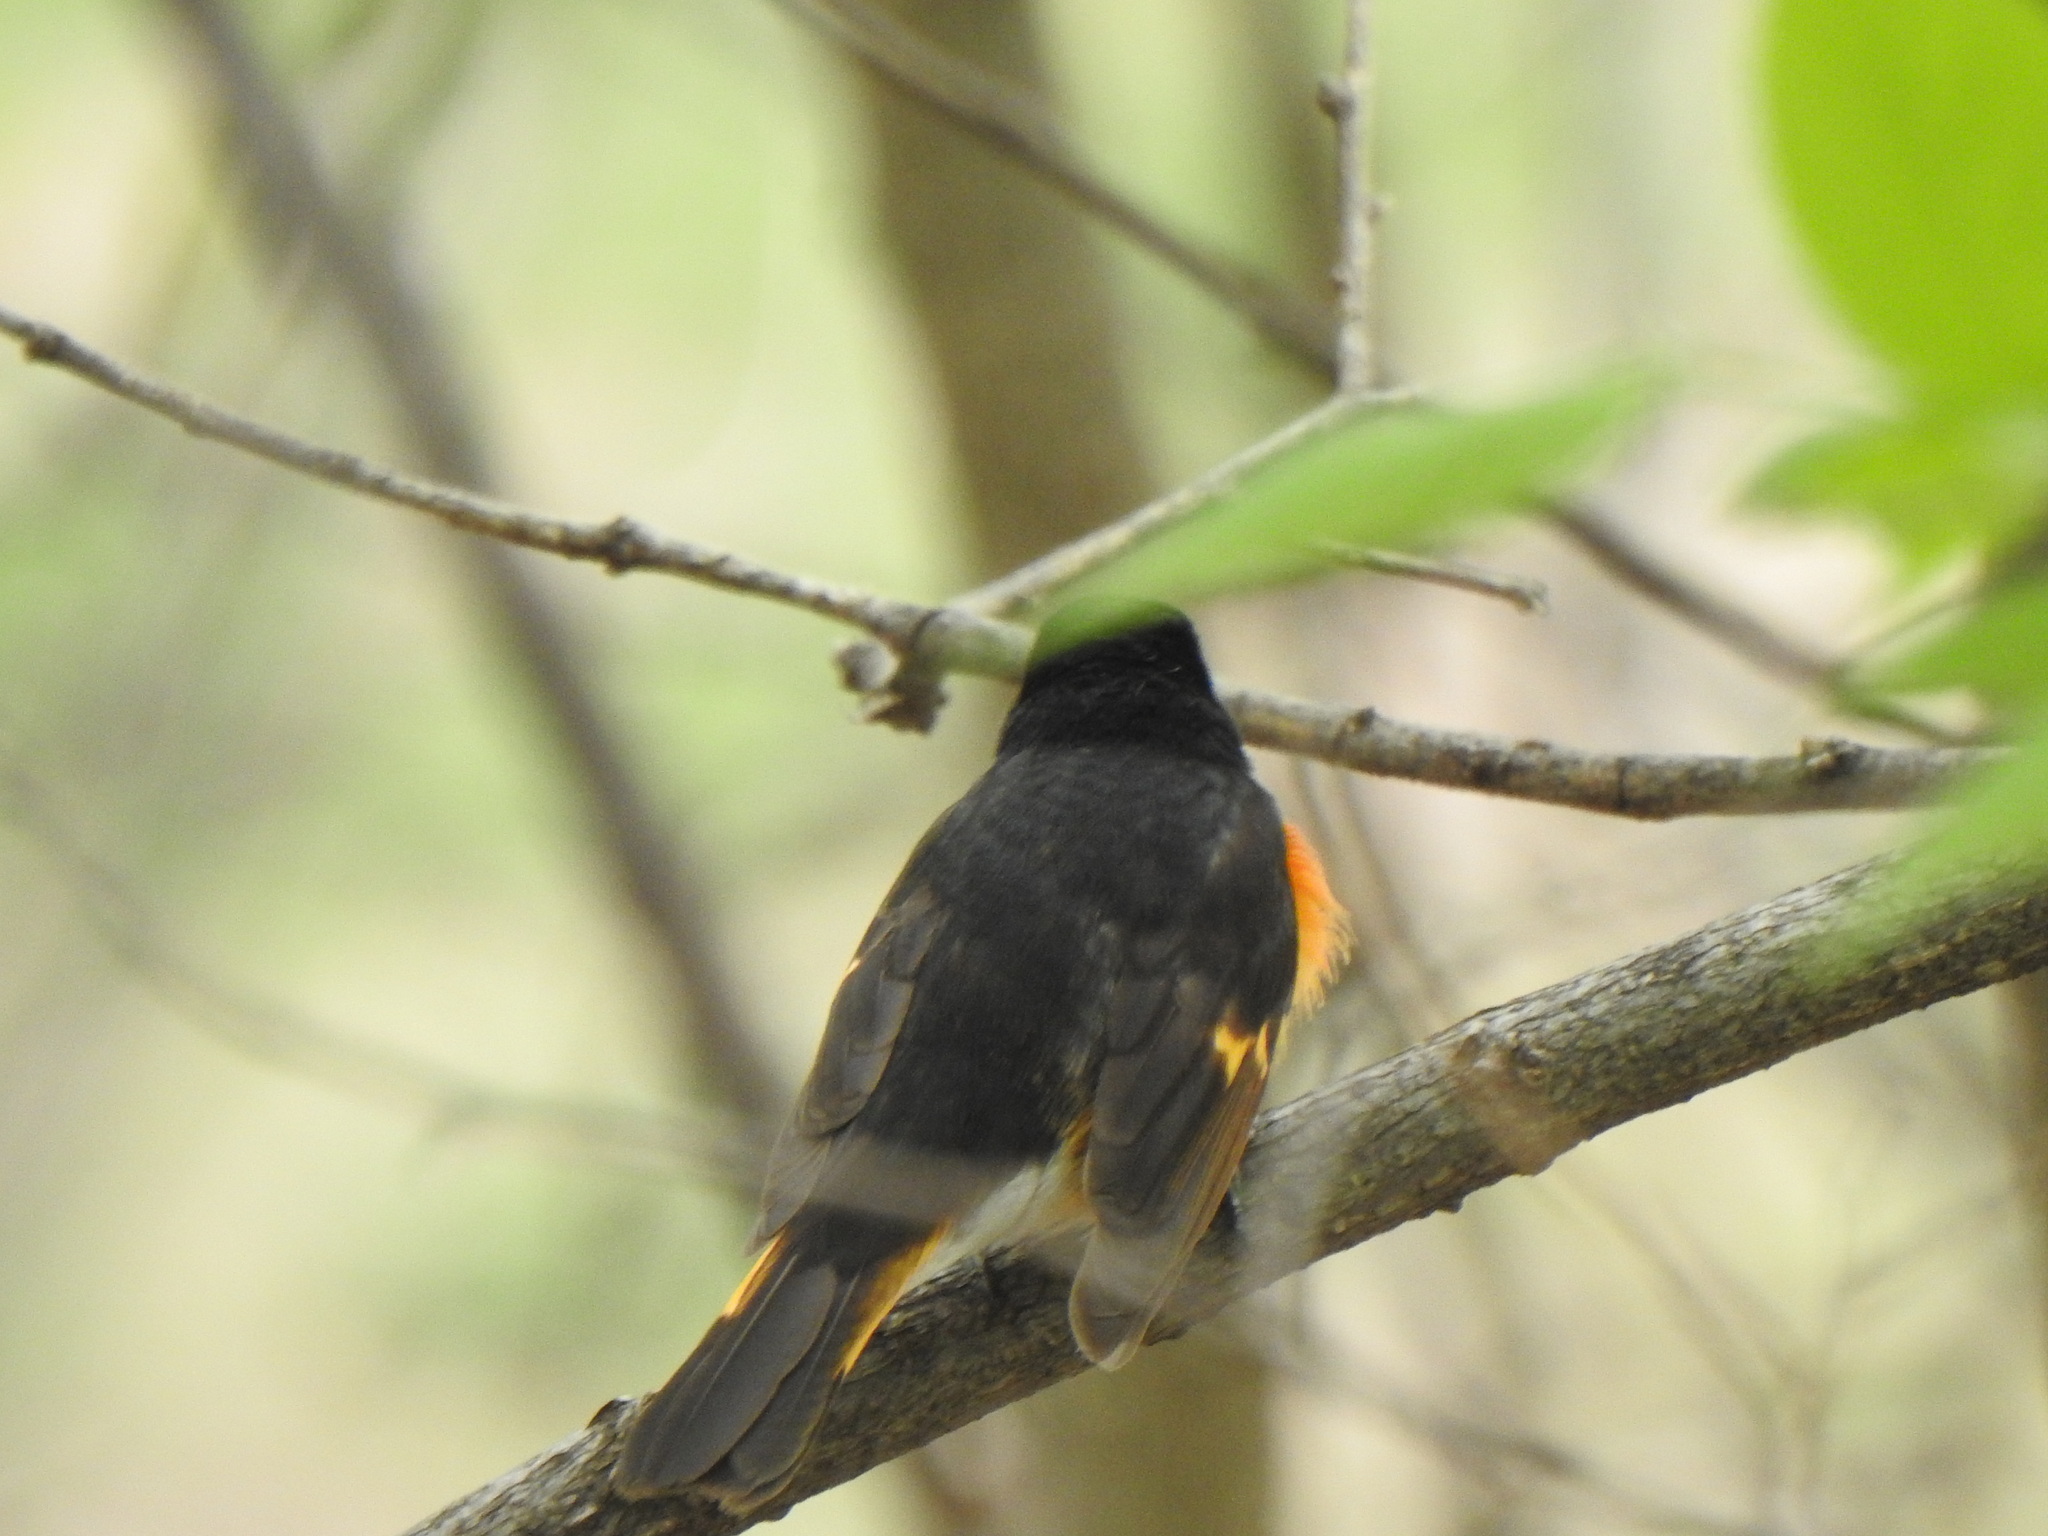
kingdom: Animalia
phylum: Chordata
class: Aves
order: Passeriformes
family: Parulidae
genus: Setophaga
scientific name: Setophaga ruticilla
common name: American redstart
